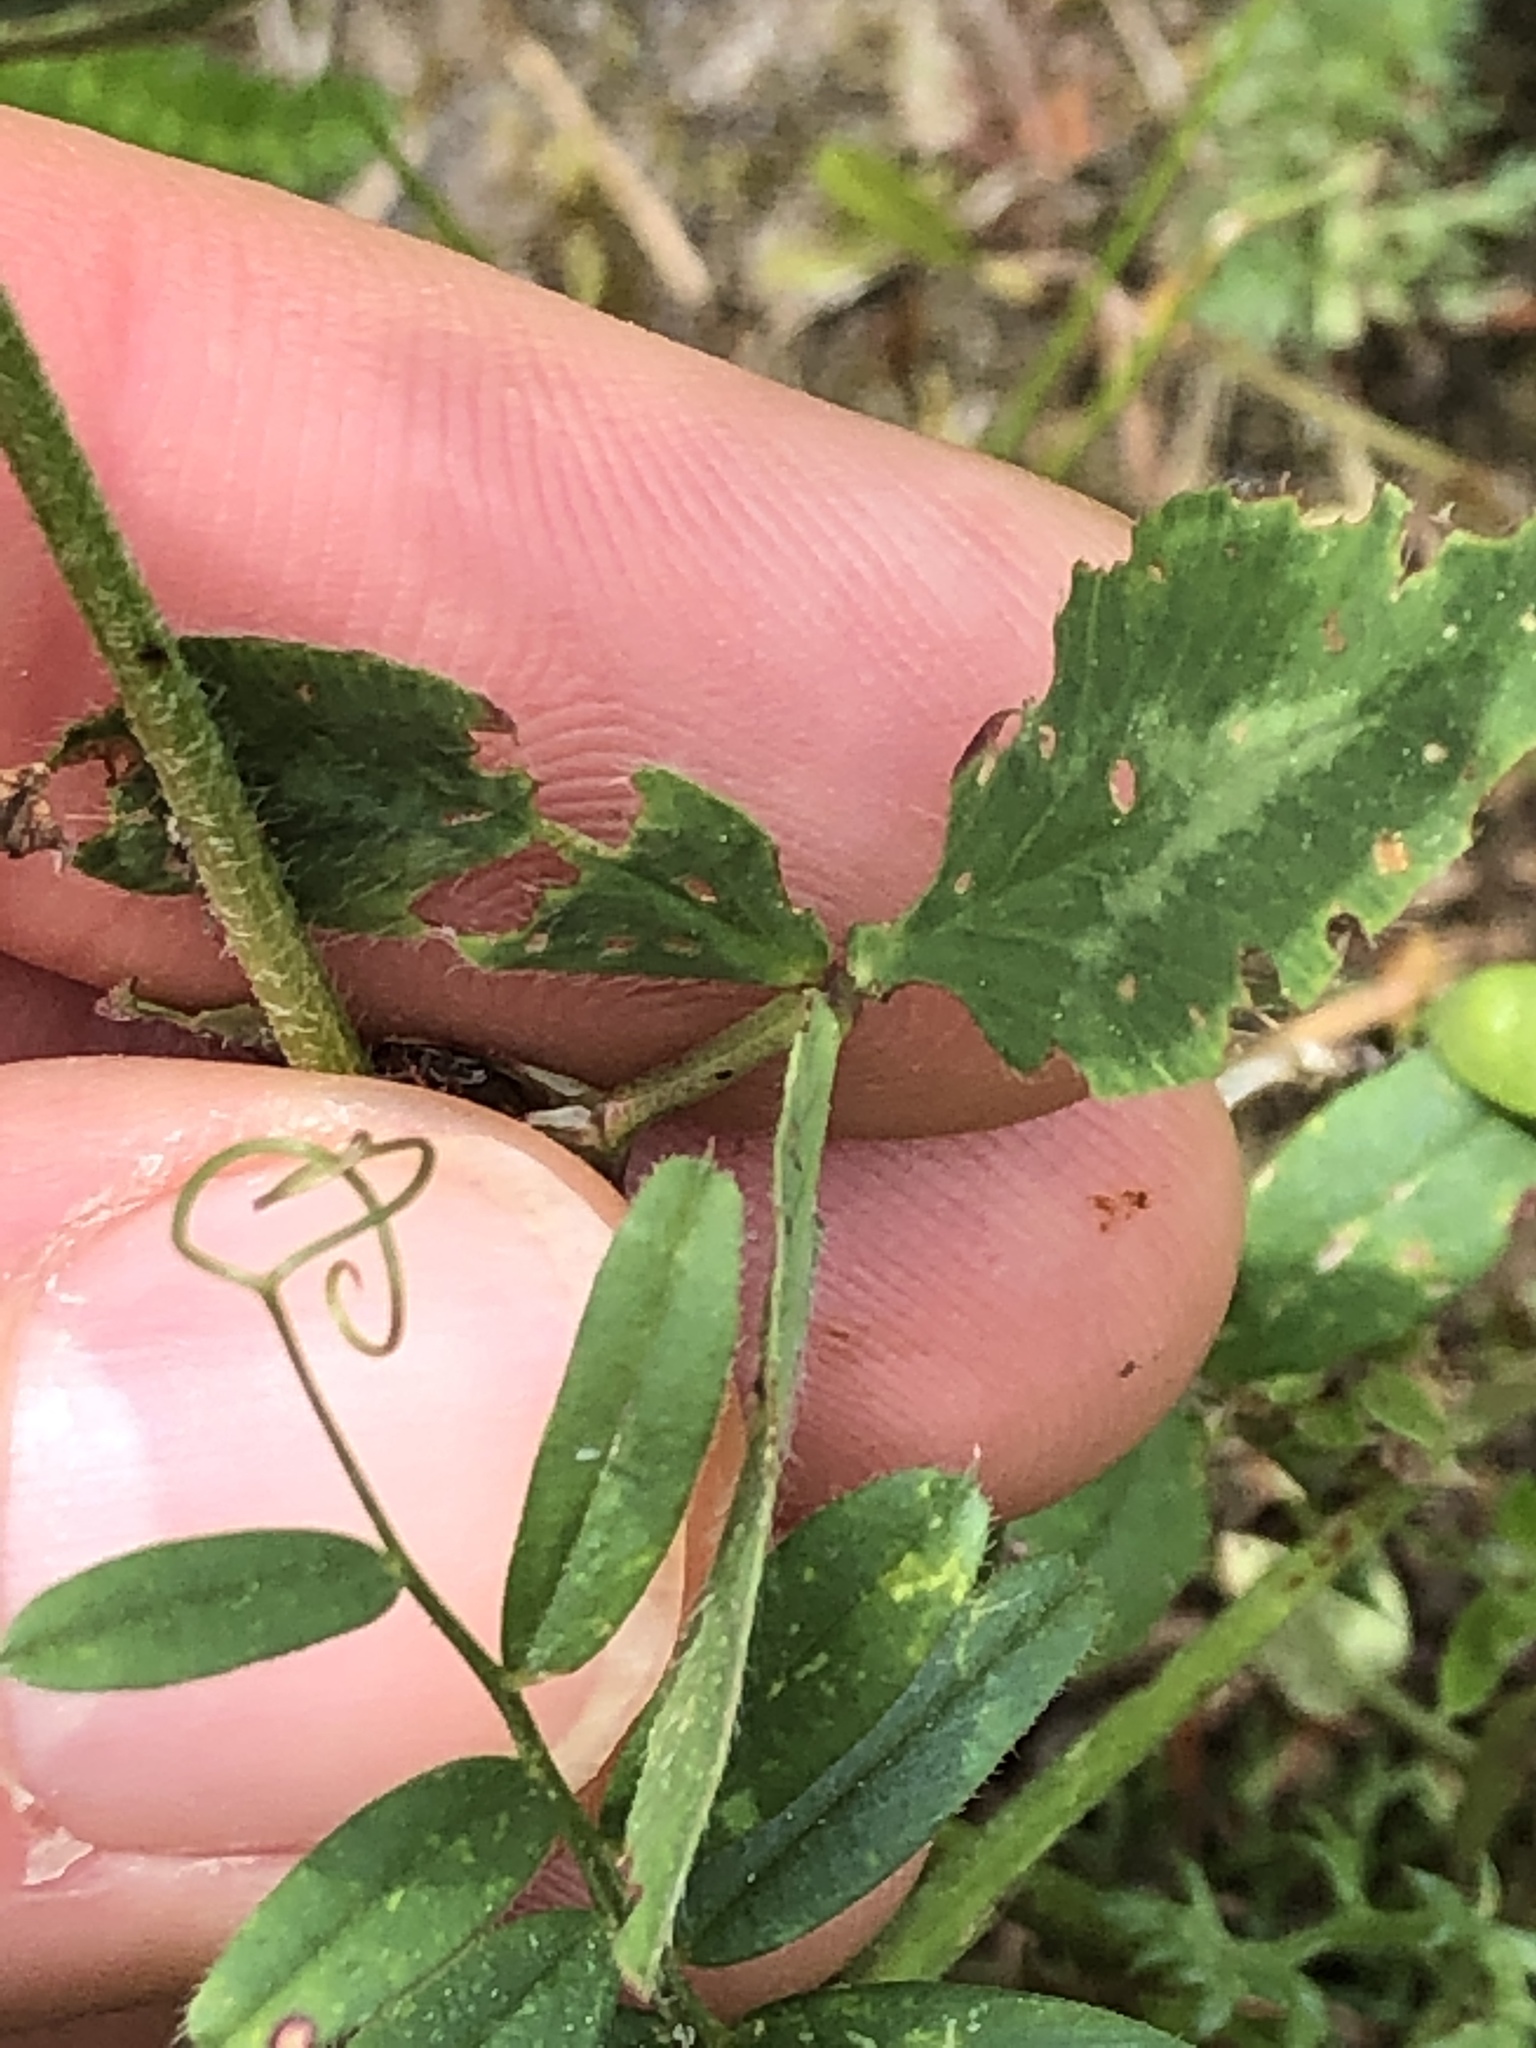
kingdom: Plantae
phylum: Tracheophyta
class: Magnoliopsida
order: Fabales
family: Fabaceae
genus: Trifolium
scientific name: Trifolium pratense
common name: Red clover
